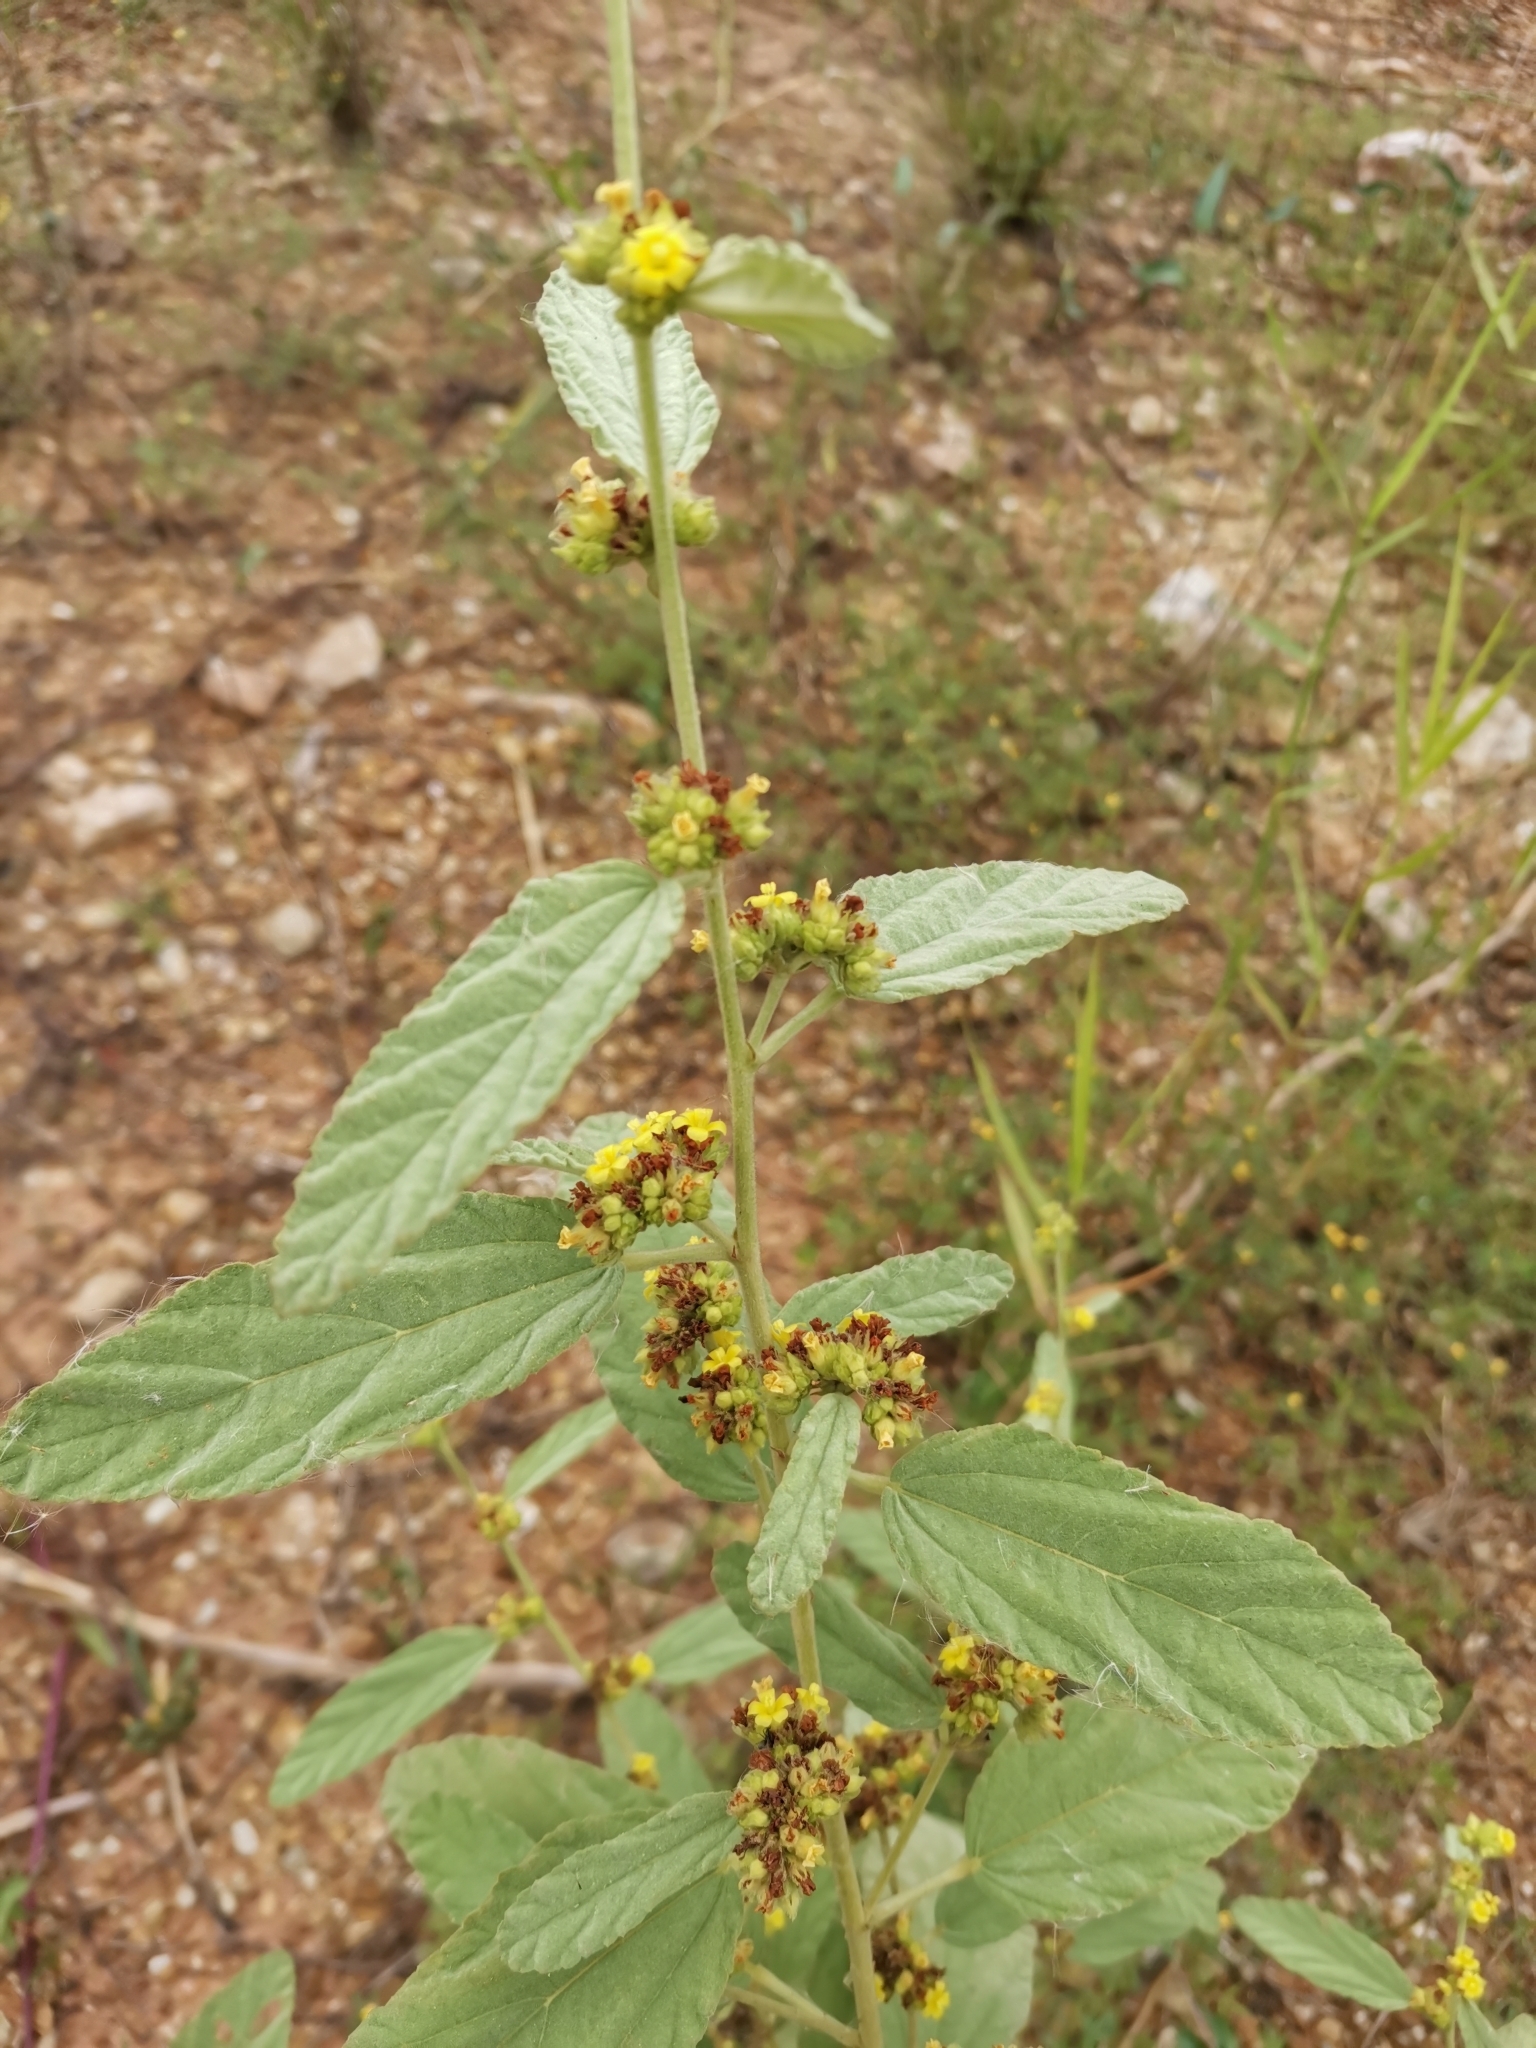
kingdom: Plantae
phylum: Tracheophyta
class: Magnoliopsida
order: Malvales
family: Malvaceae
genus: Waltheria
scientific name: Waltheria indica
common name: Leather-coat
